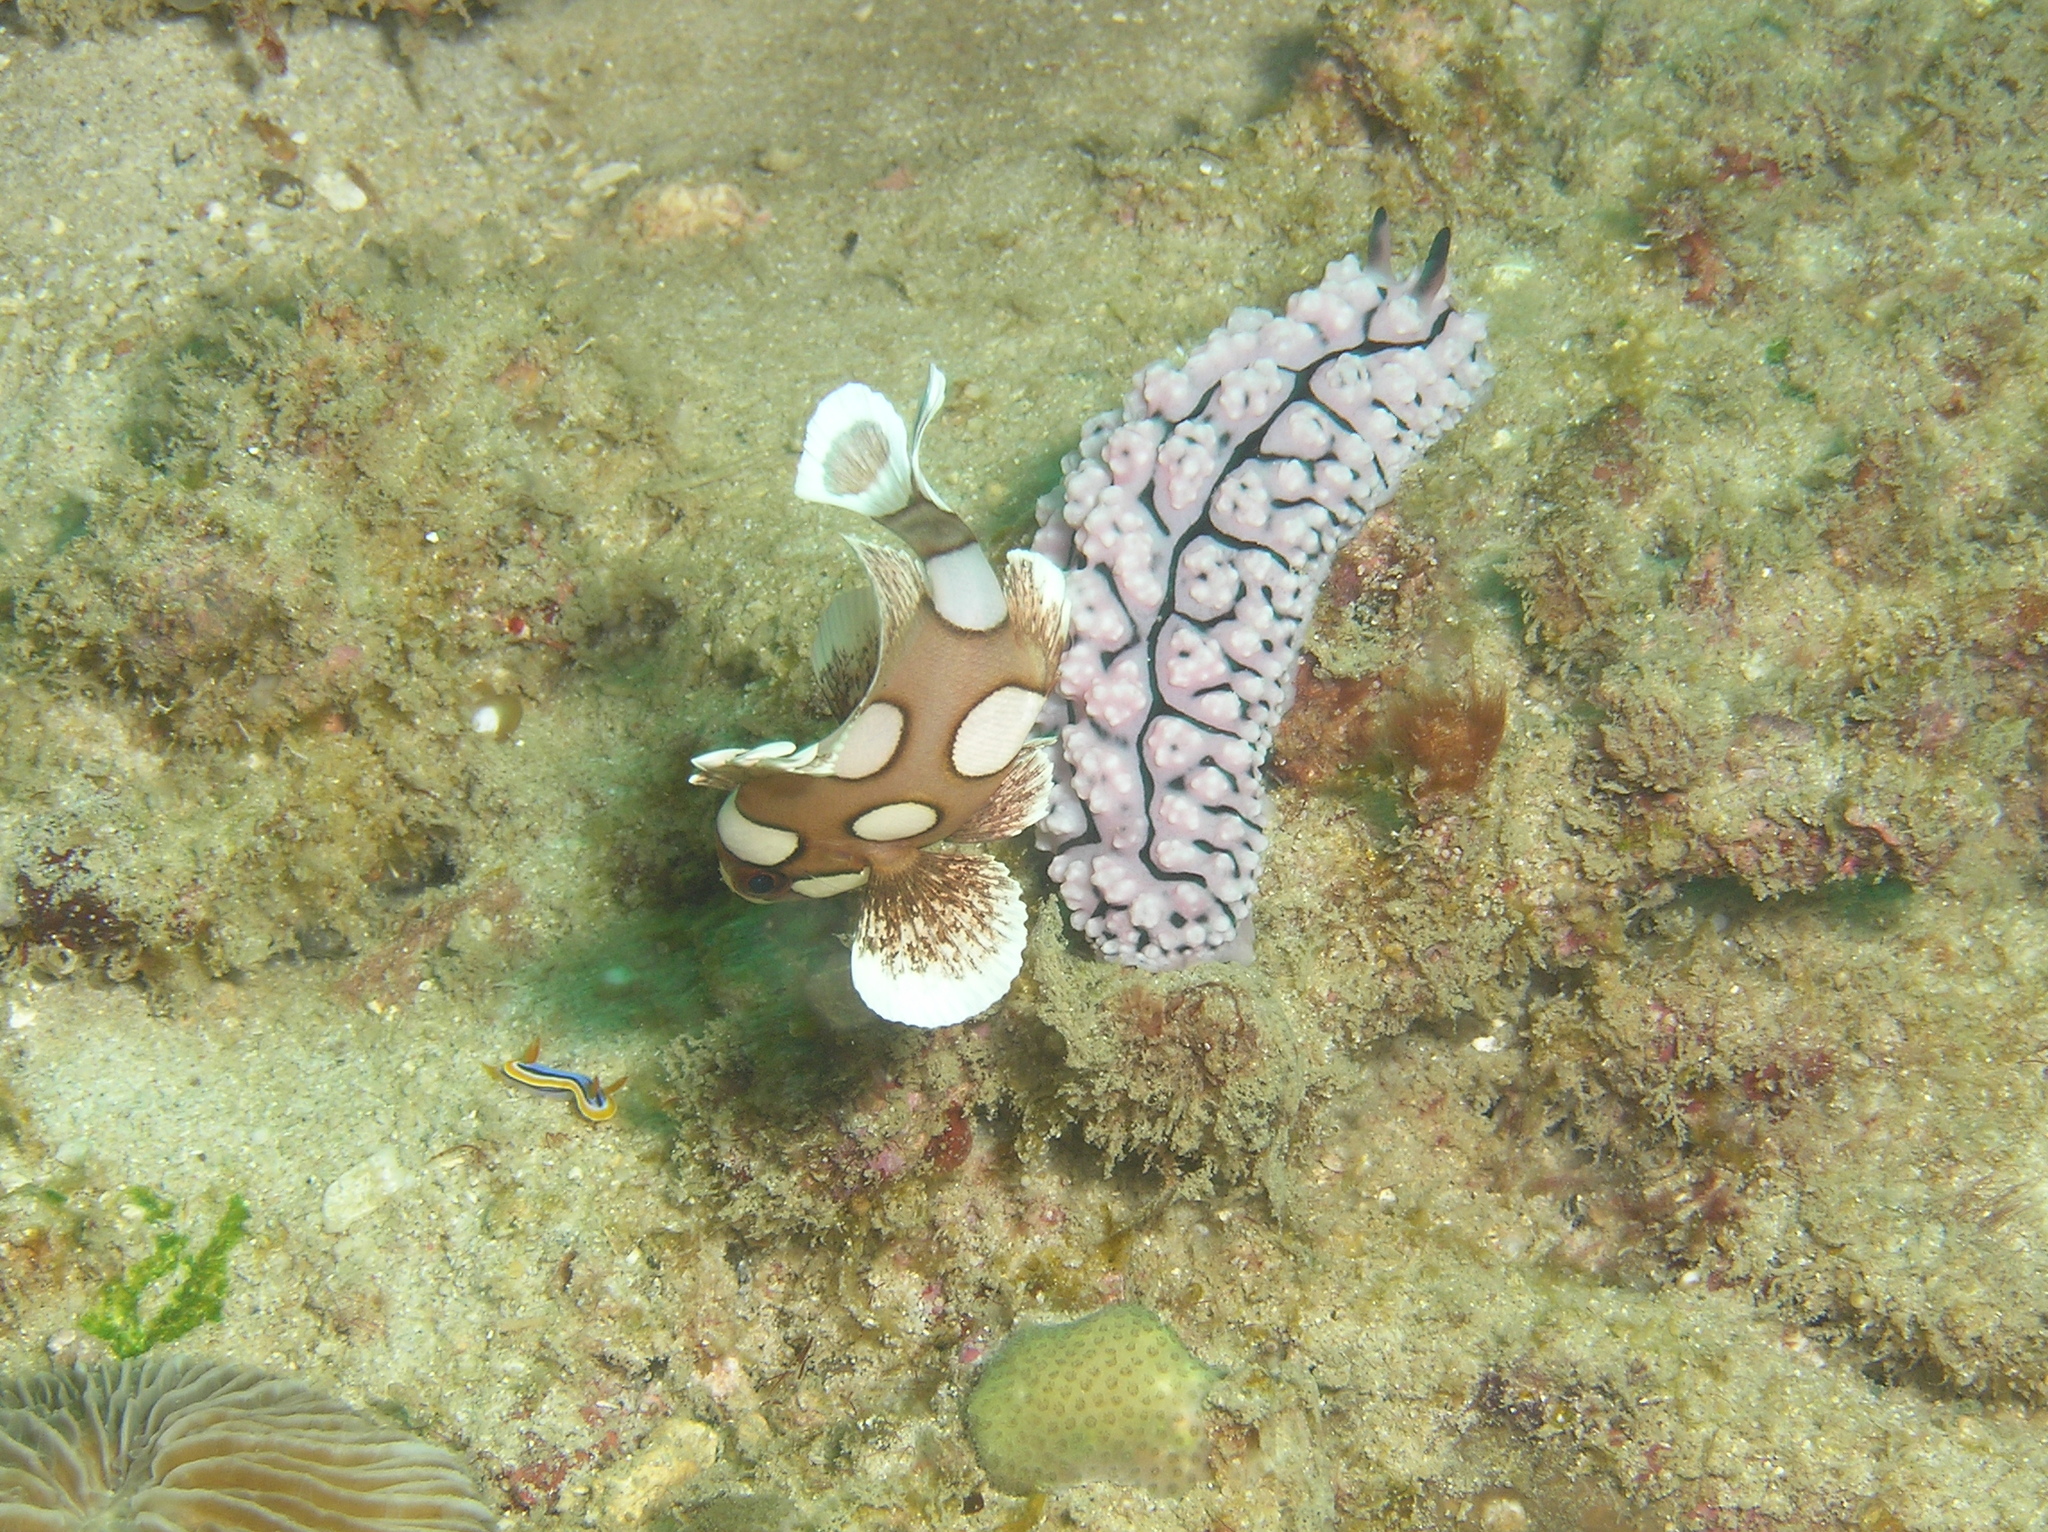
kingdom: Animalia
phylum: Chordata
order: Perciformes
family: Haemulidae
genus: Plectorhinchus
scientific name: Plectorhinchus chaetodonoides
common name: Harlequin sweetlips
